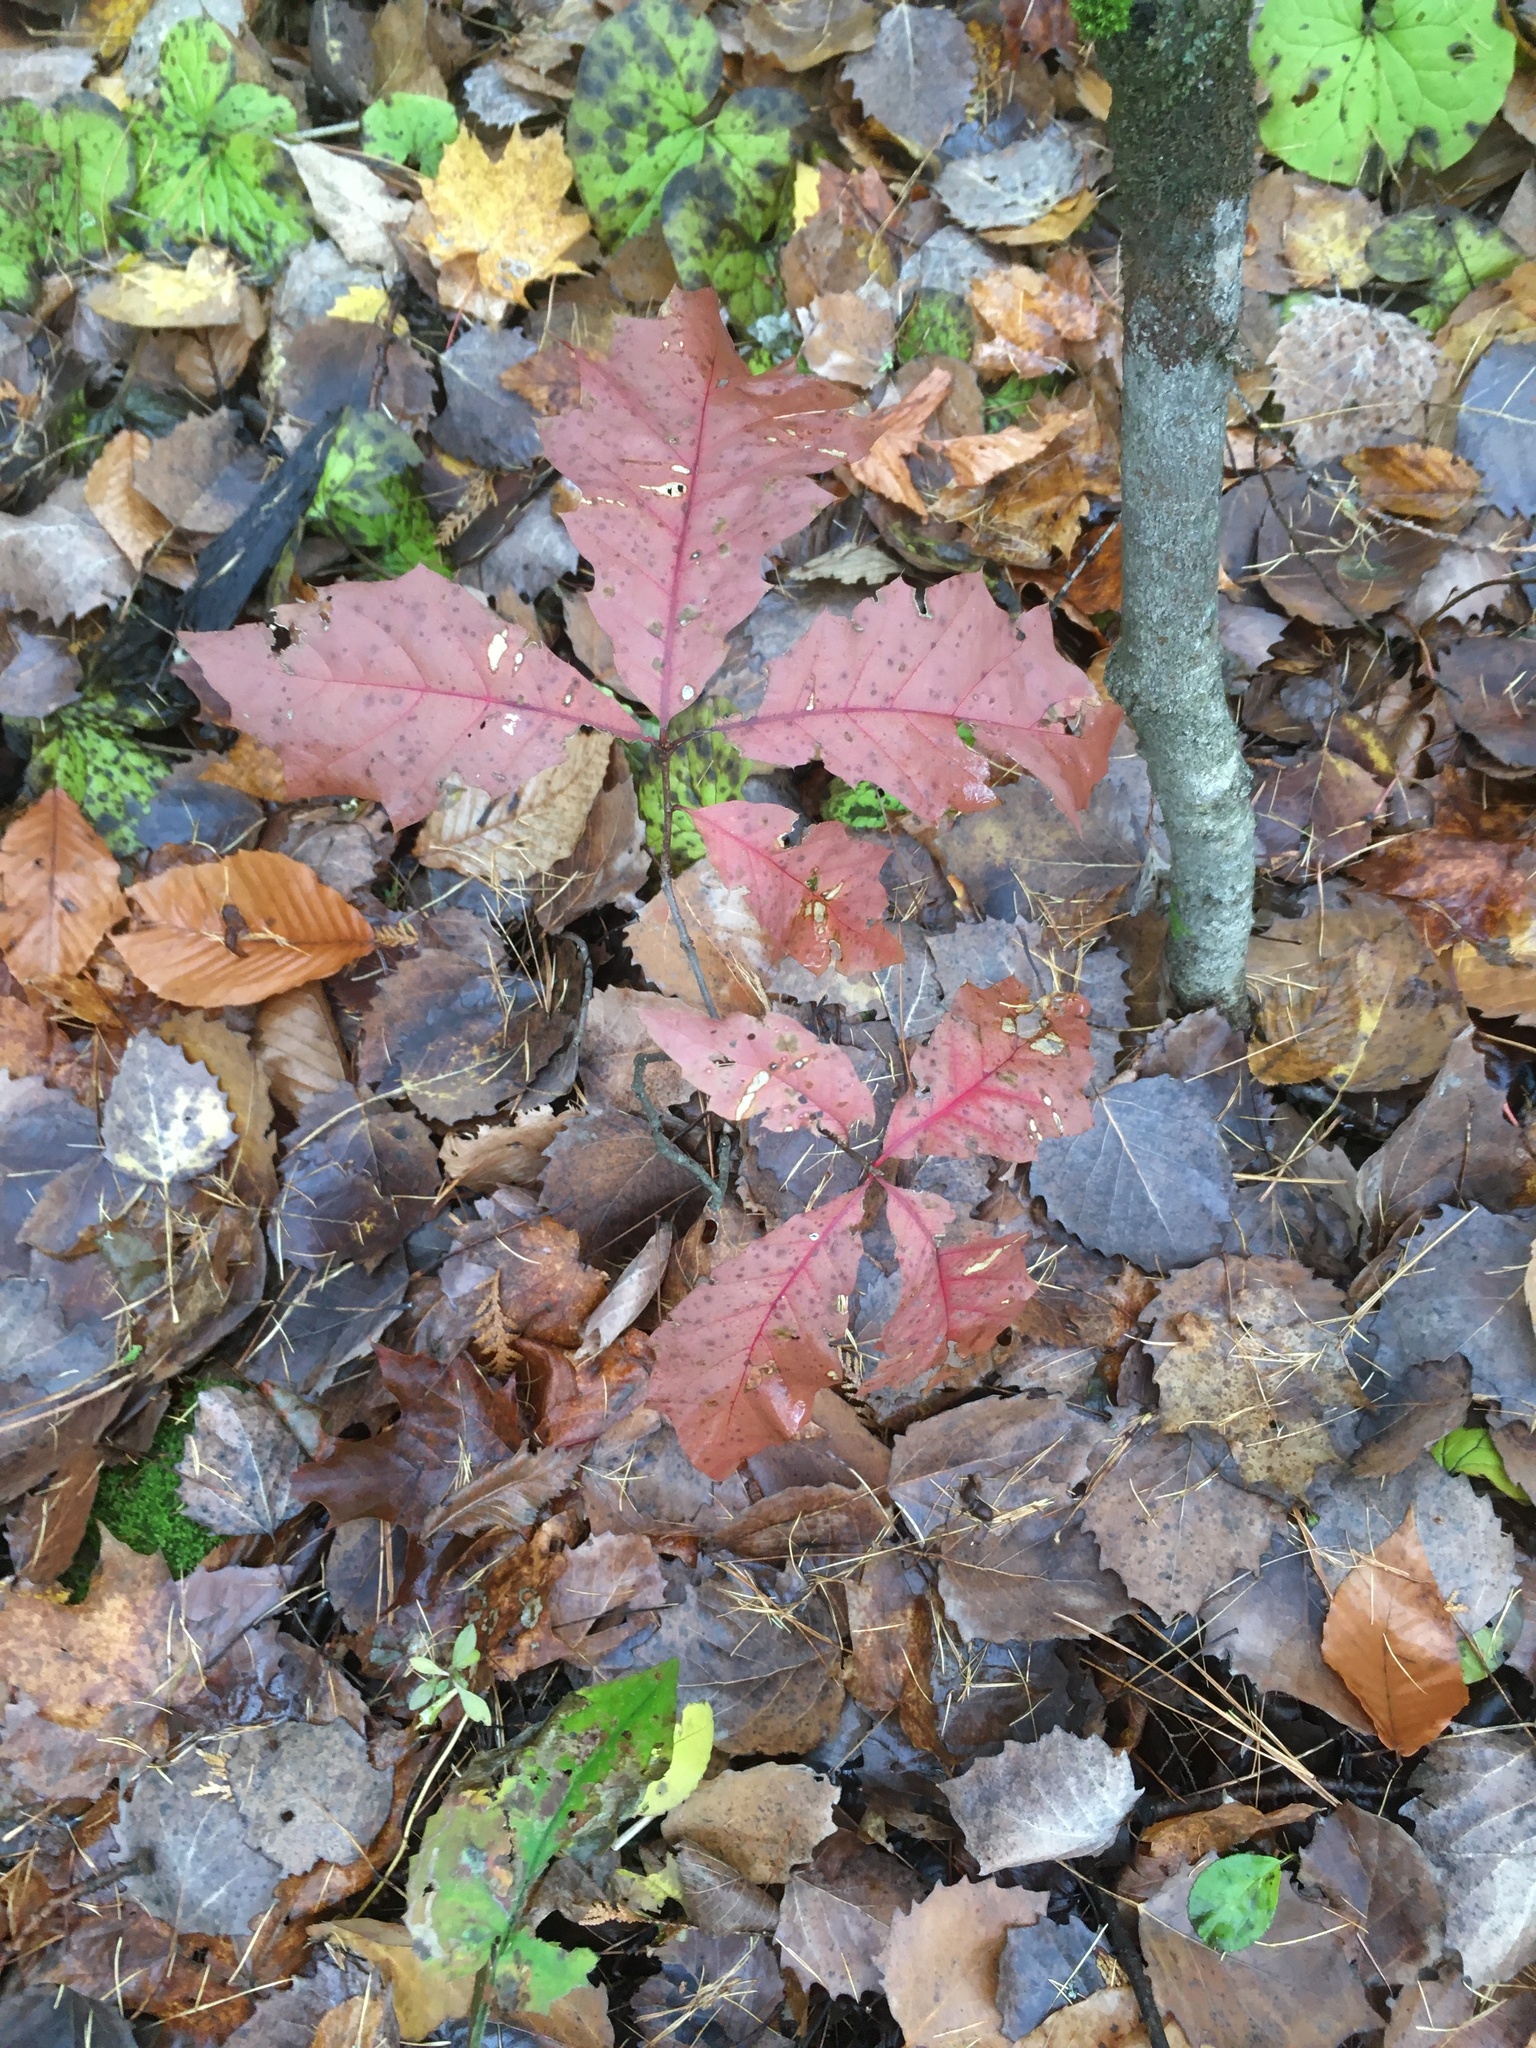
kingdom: Plantae
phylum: Tracheophyta
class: Magnoliopsida
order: Fagales
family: Fagaceae
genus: Quercus
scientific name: Quercus rubra
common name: Red oak
